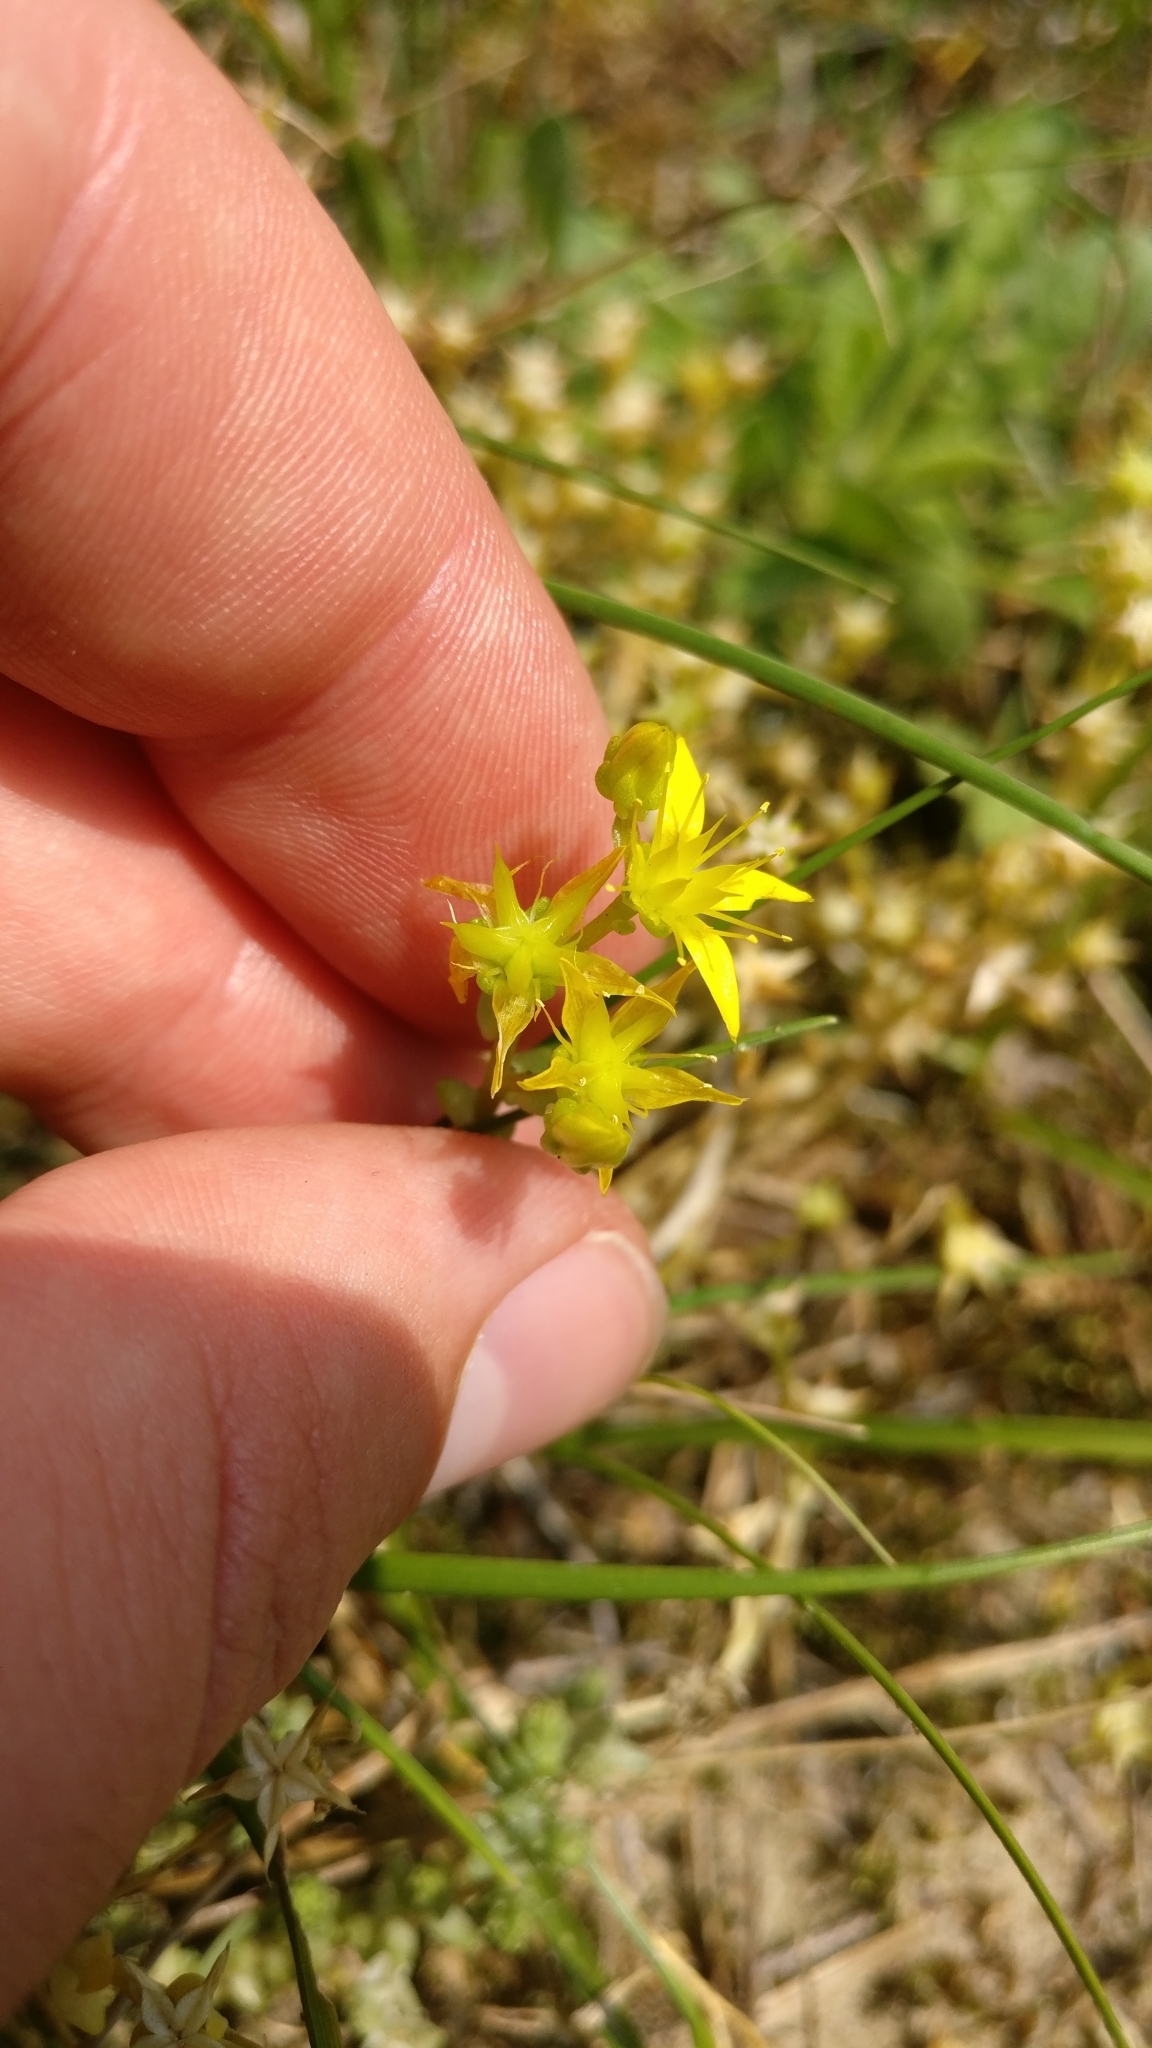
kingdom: Plantae
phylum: Tracheophyta
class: Magnoliopsida
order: Saxifragales
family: Crassulaceae
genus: Sedum
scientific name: Sedum acre
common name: Biting stonecrop
